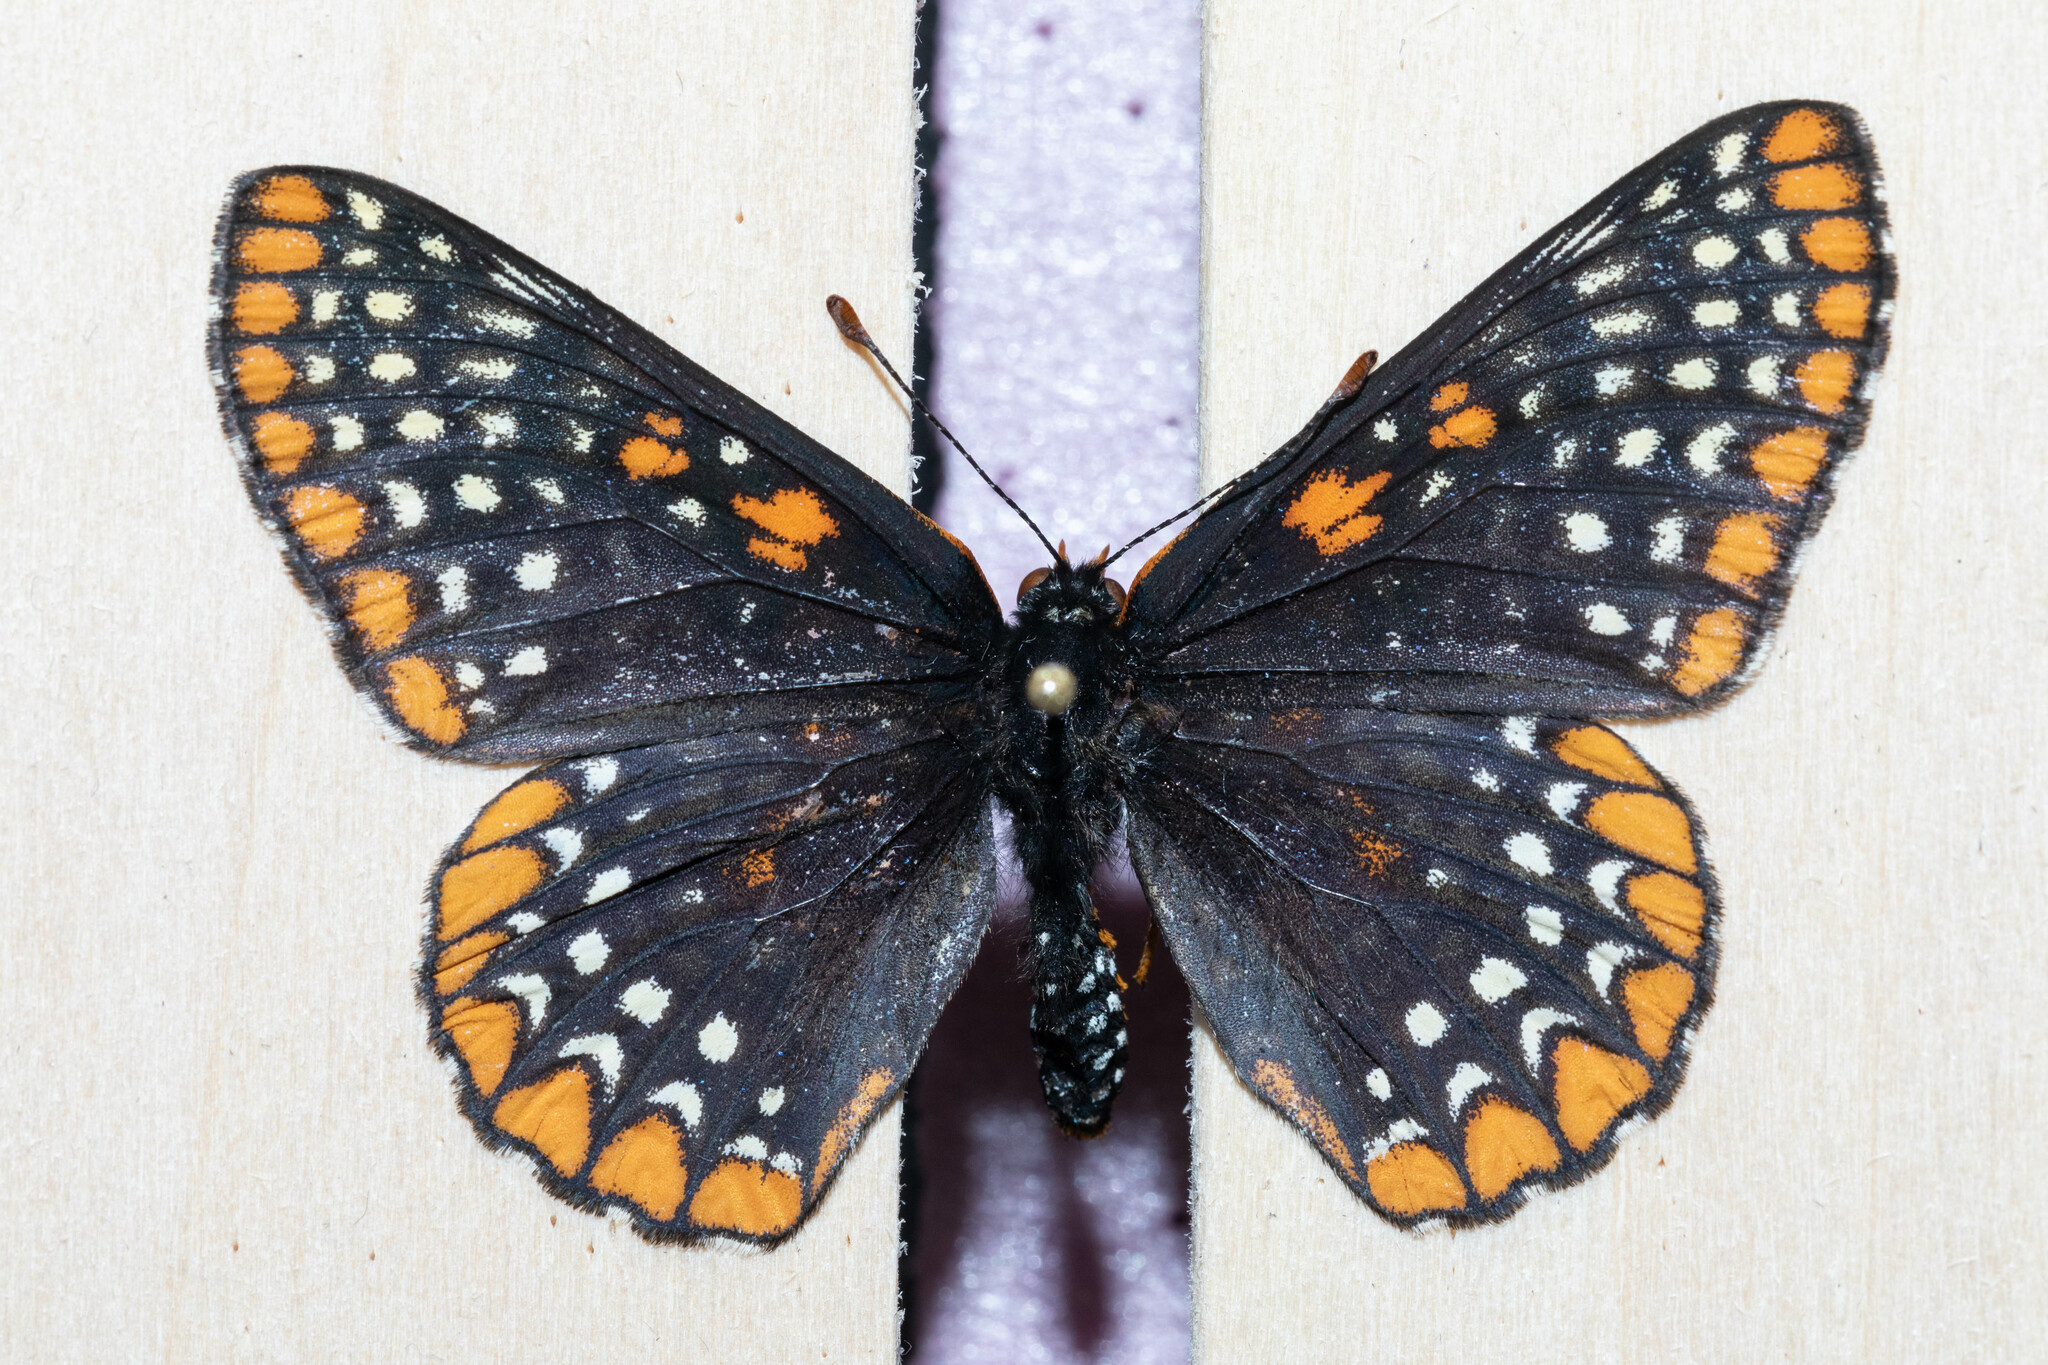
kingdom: Animalia
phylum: Arthropoda
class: Insecta
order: Lepidoptera
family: Nymphalidae
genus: Euphydryas
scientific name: Euphydryas phaeton
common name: Baltimore checkerspot
